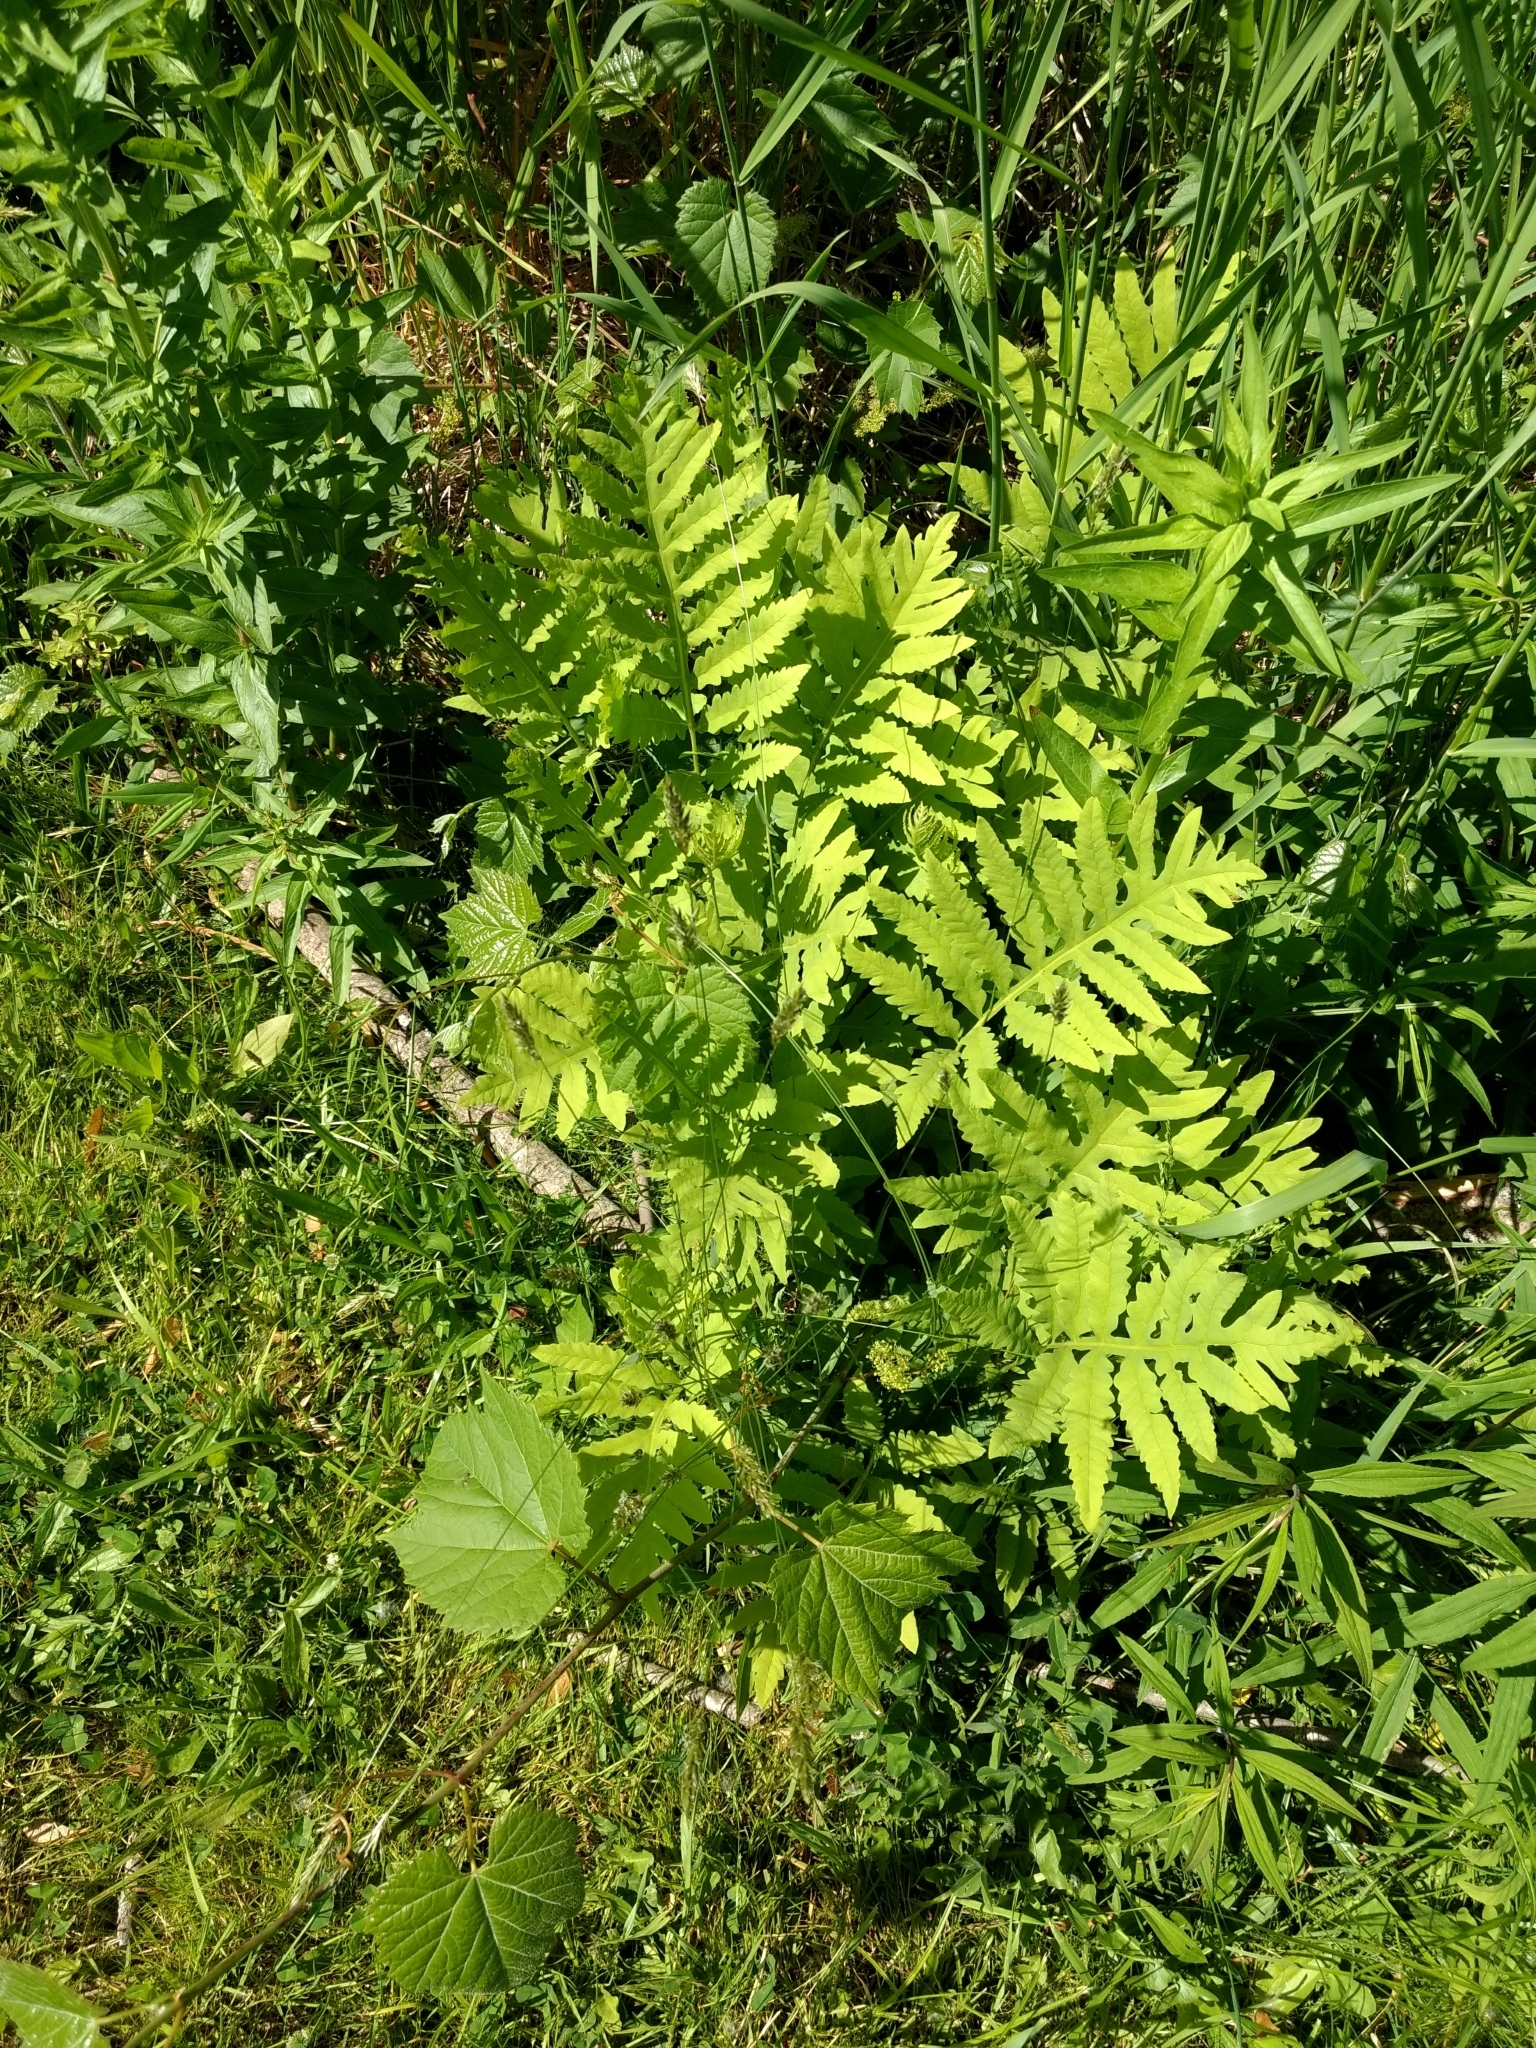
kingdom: Plantae
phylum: Tracheophyta
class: Polypodiopsida
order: Polypodiales
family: Onocleaceae
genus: Onoclea
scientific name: Onoclea sensibilis
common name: Sensitive fern
